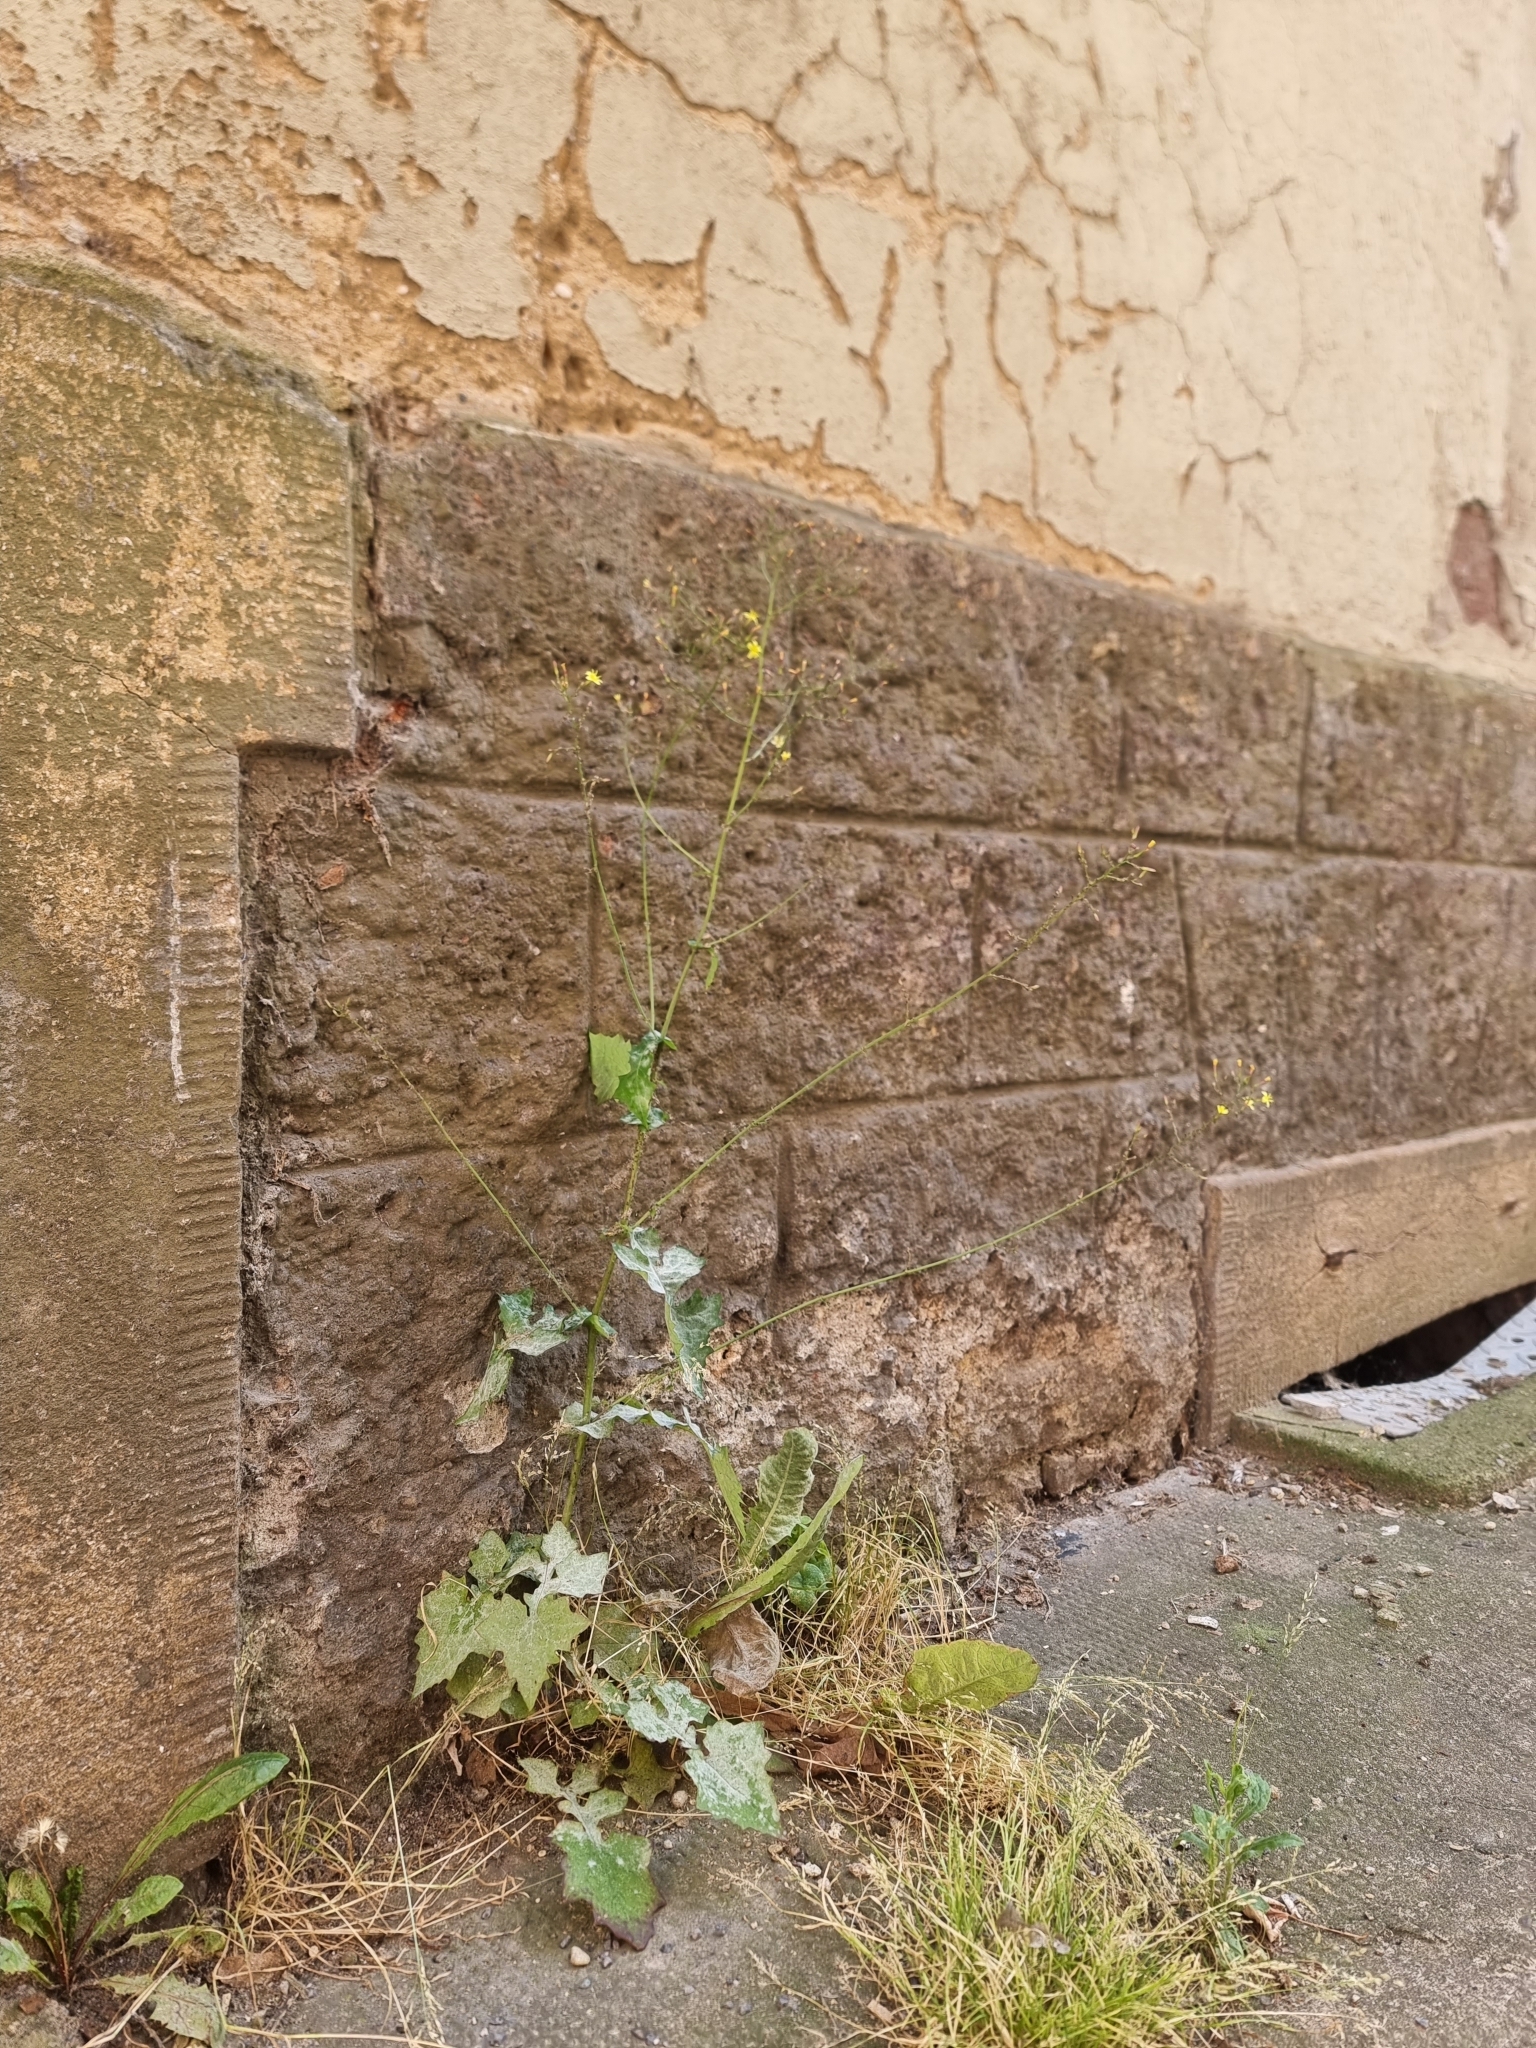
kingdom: Plantae
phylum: Tracheophyta
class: Magnoliopsida
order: Asterales
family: Asteraceae
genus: Mycelis
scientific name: Mycelis muralis
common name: Wall lettuce
